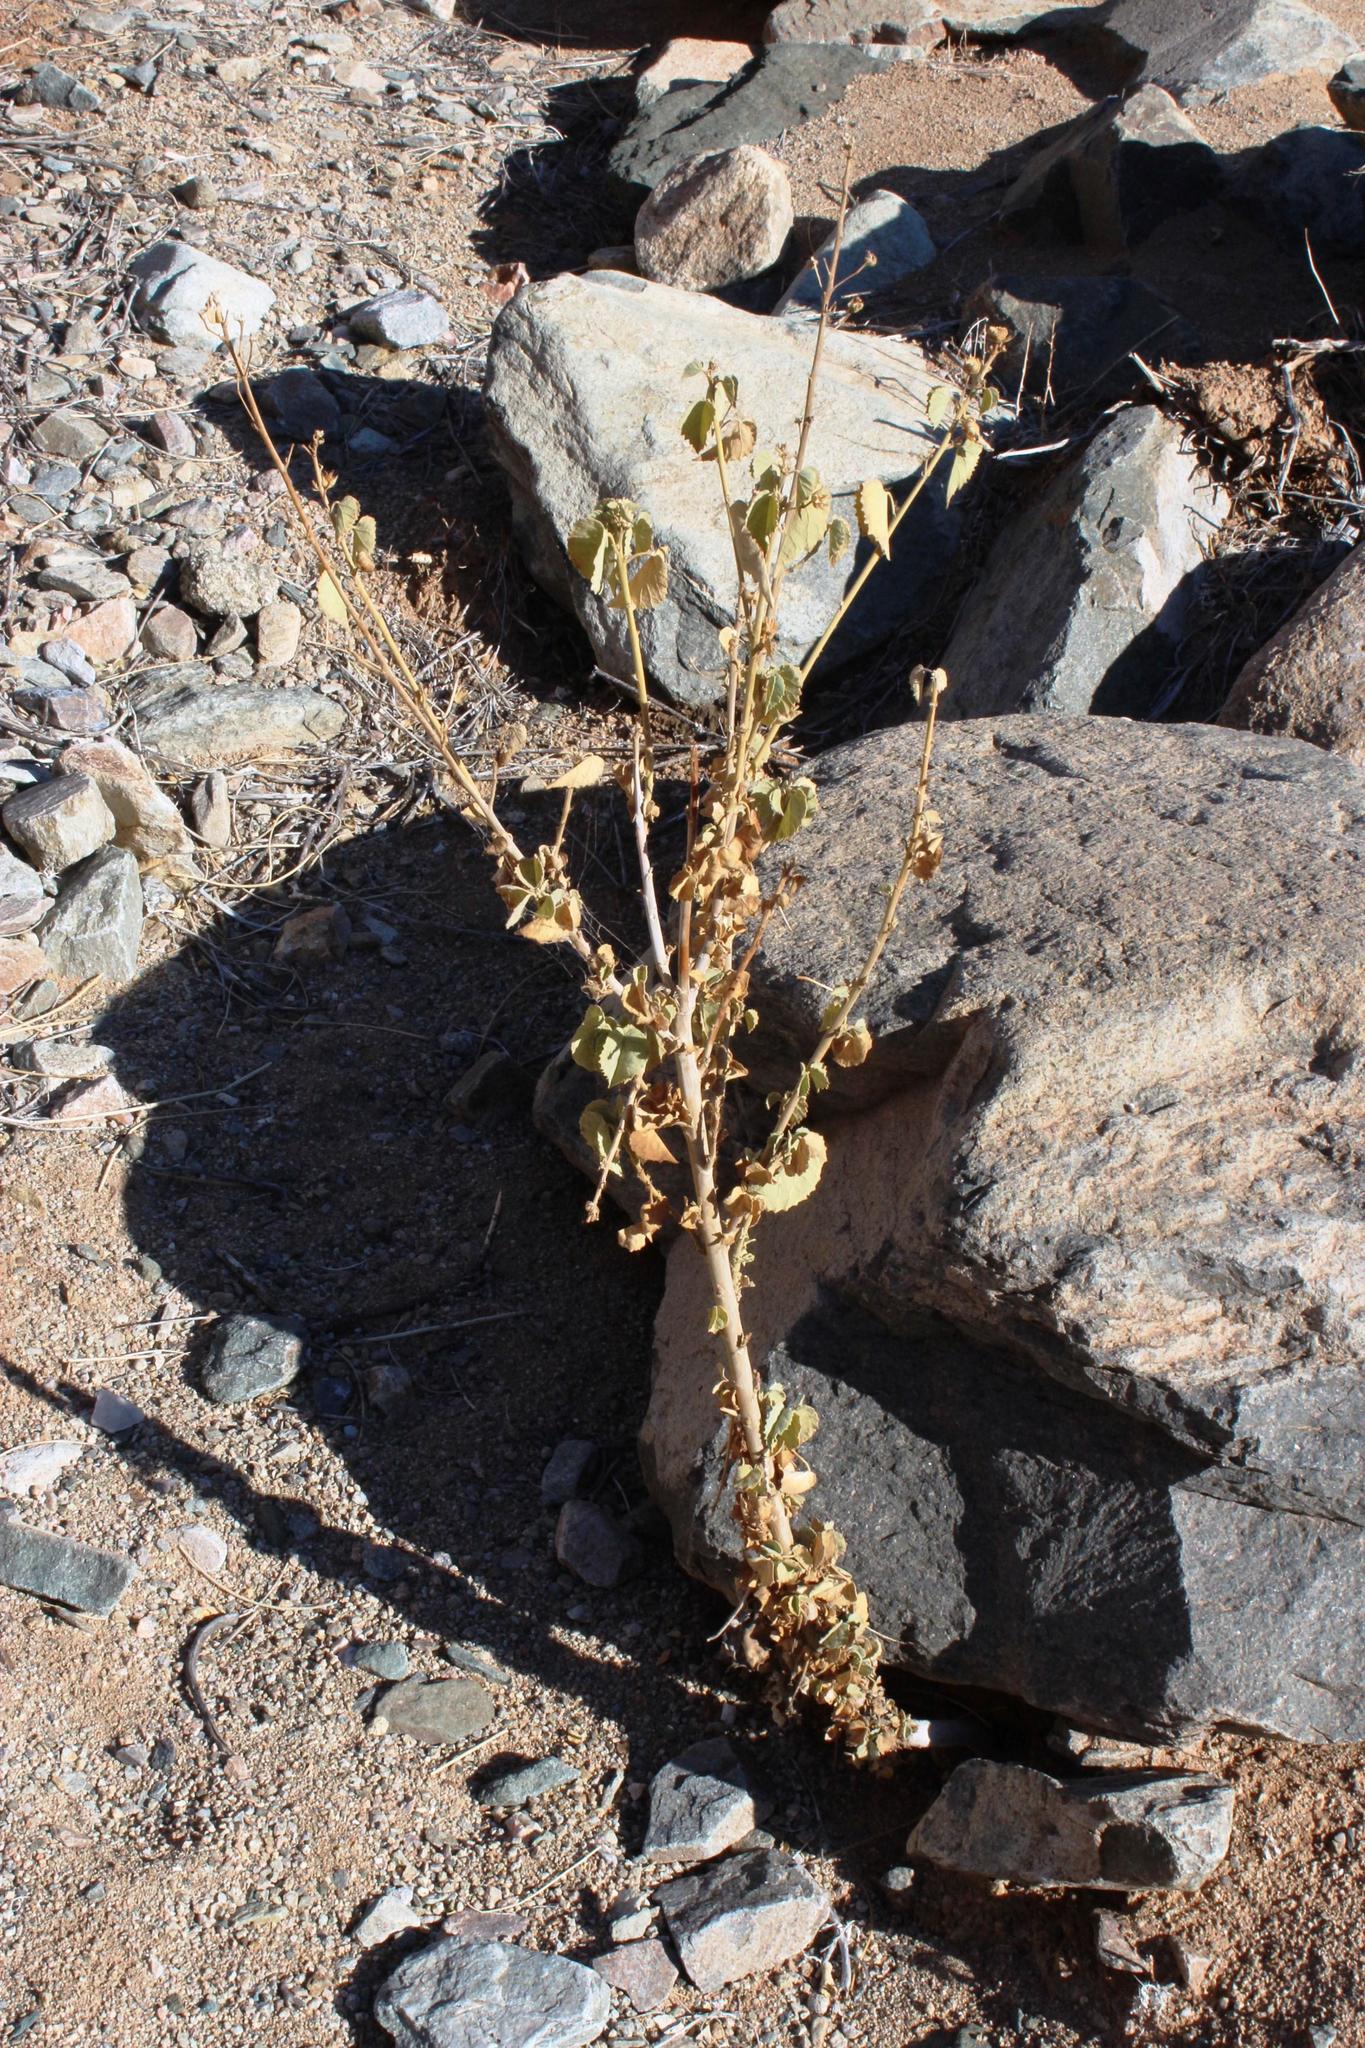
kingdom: Plantae
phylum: Tracheophyta
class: Magnoliopsida
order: Malvales
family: Malvaceae
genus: Abutilon
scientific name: Abutilon pycnodon
